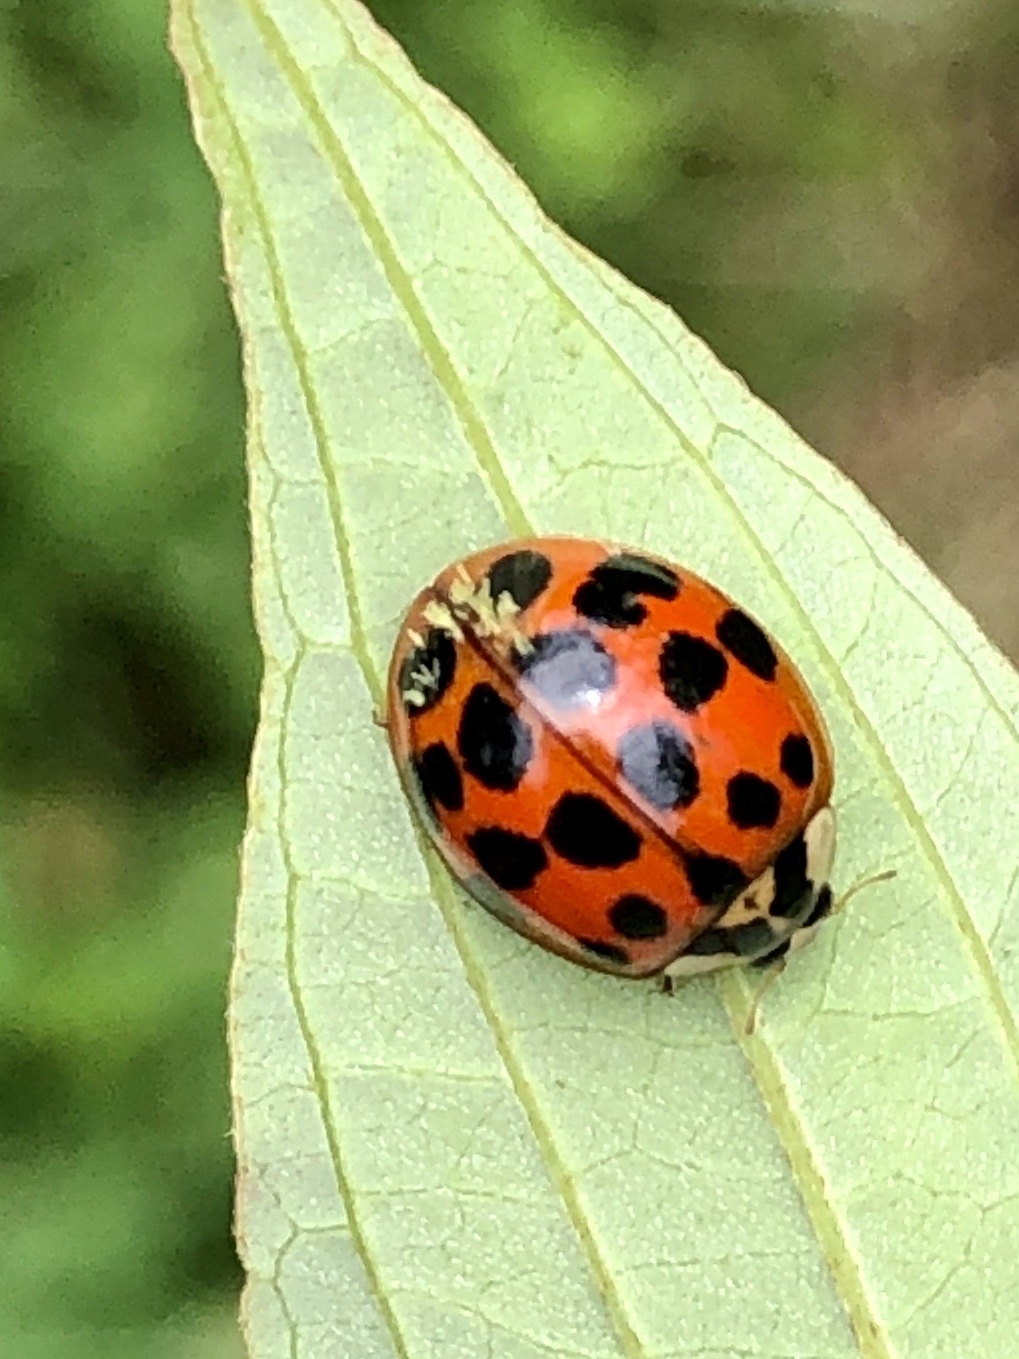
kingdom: Fungi
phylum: Ascomycota
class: Laboulbeniomycetes
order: Laboulbeniales
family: Laboulbeniaceae
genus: Hesperomyces
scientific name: Hesperomyces harmoniae
